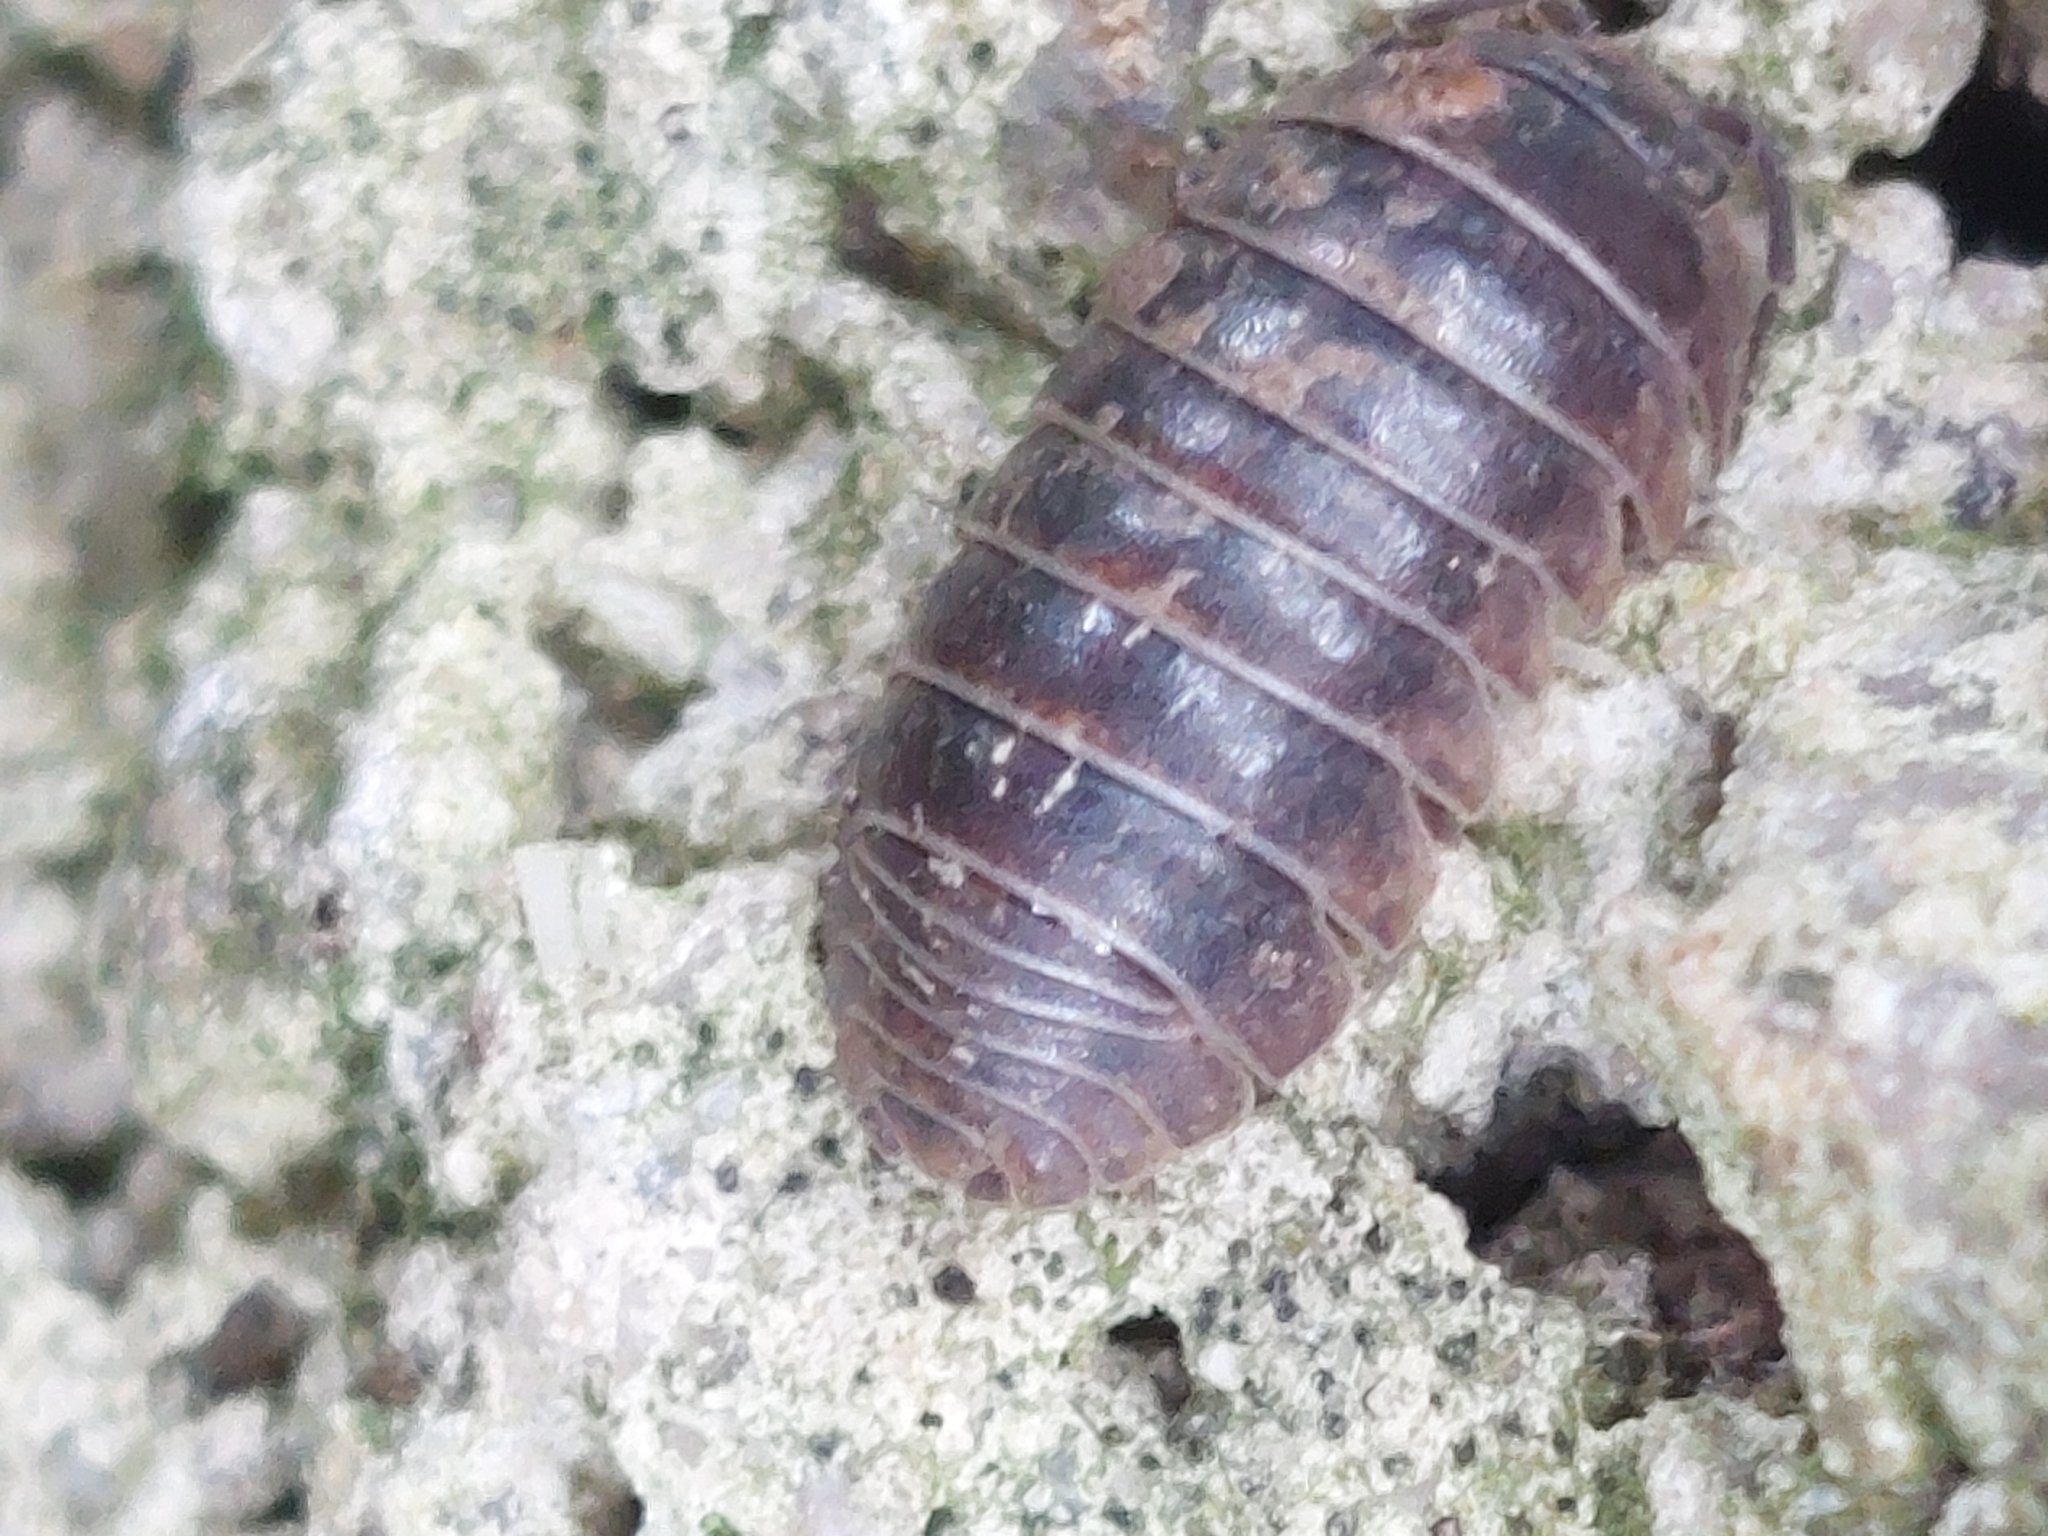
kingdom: Animalia
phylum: Arthropoda
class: Malacostraca
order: Isopoda
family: Armadillidiidae
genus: Armadillidium
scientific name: Armadillidium vulgare
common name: Common pill woodlouse
